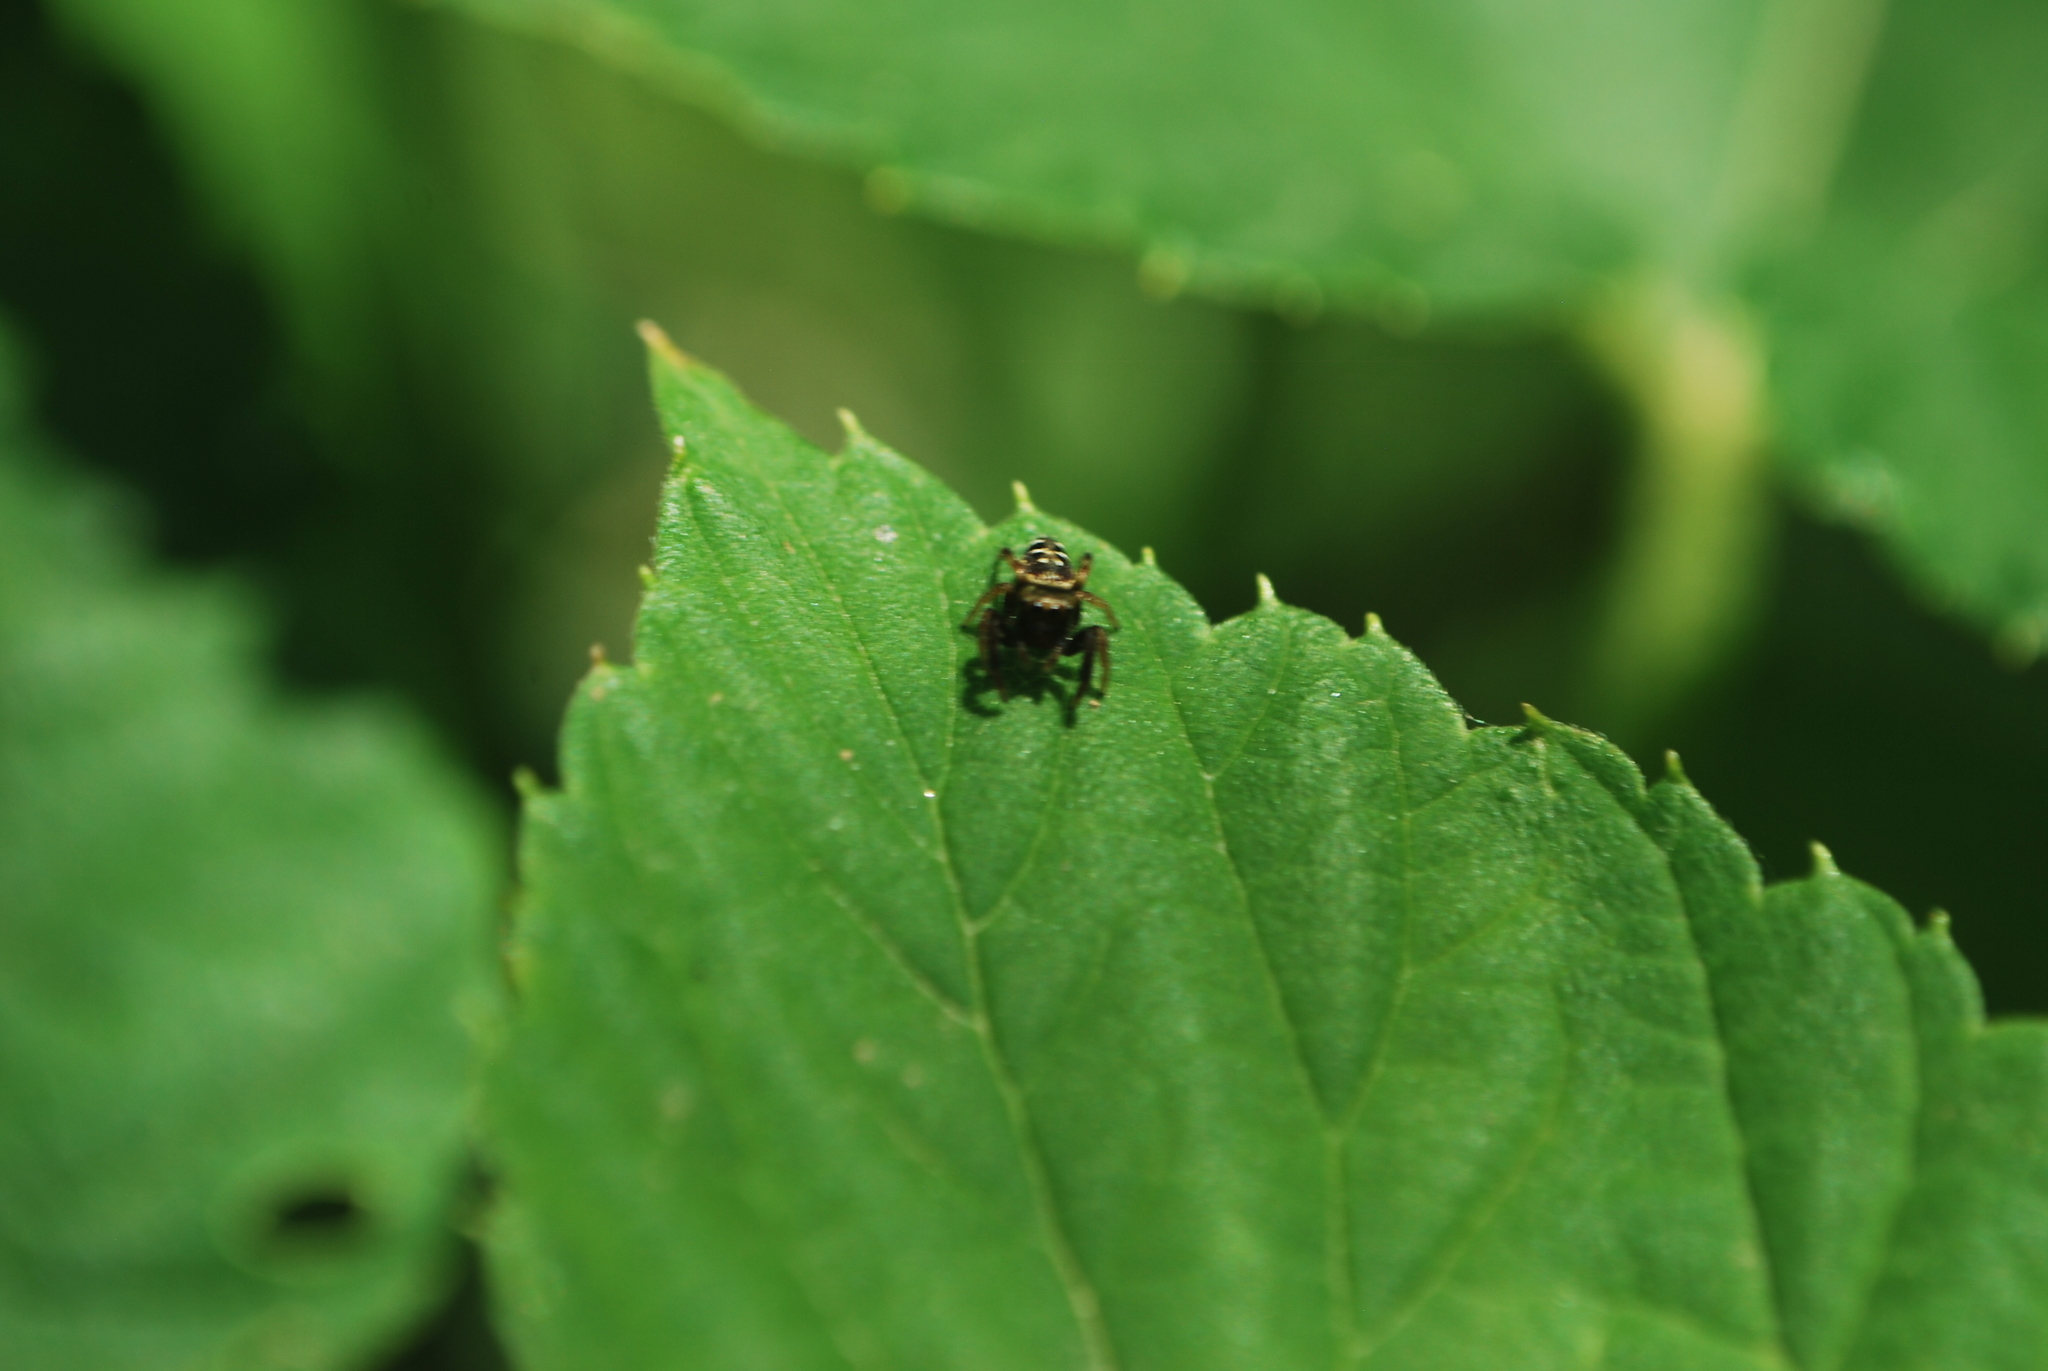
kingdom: Animalia
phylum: Arthropoda
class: Arachnida
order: Araneae
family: Salticidae
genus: Paraphidippus
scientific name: Paraphidippus aurantius
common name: Jumping spiders
